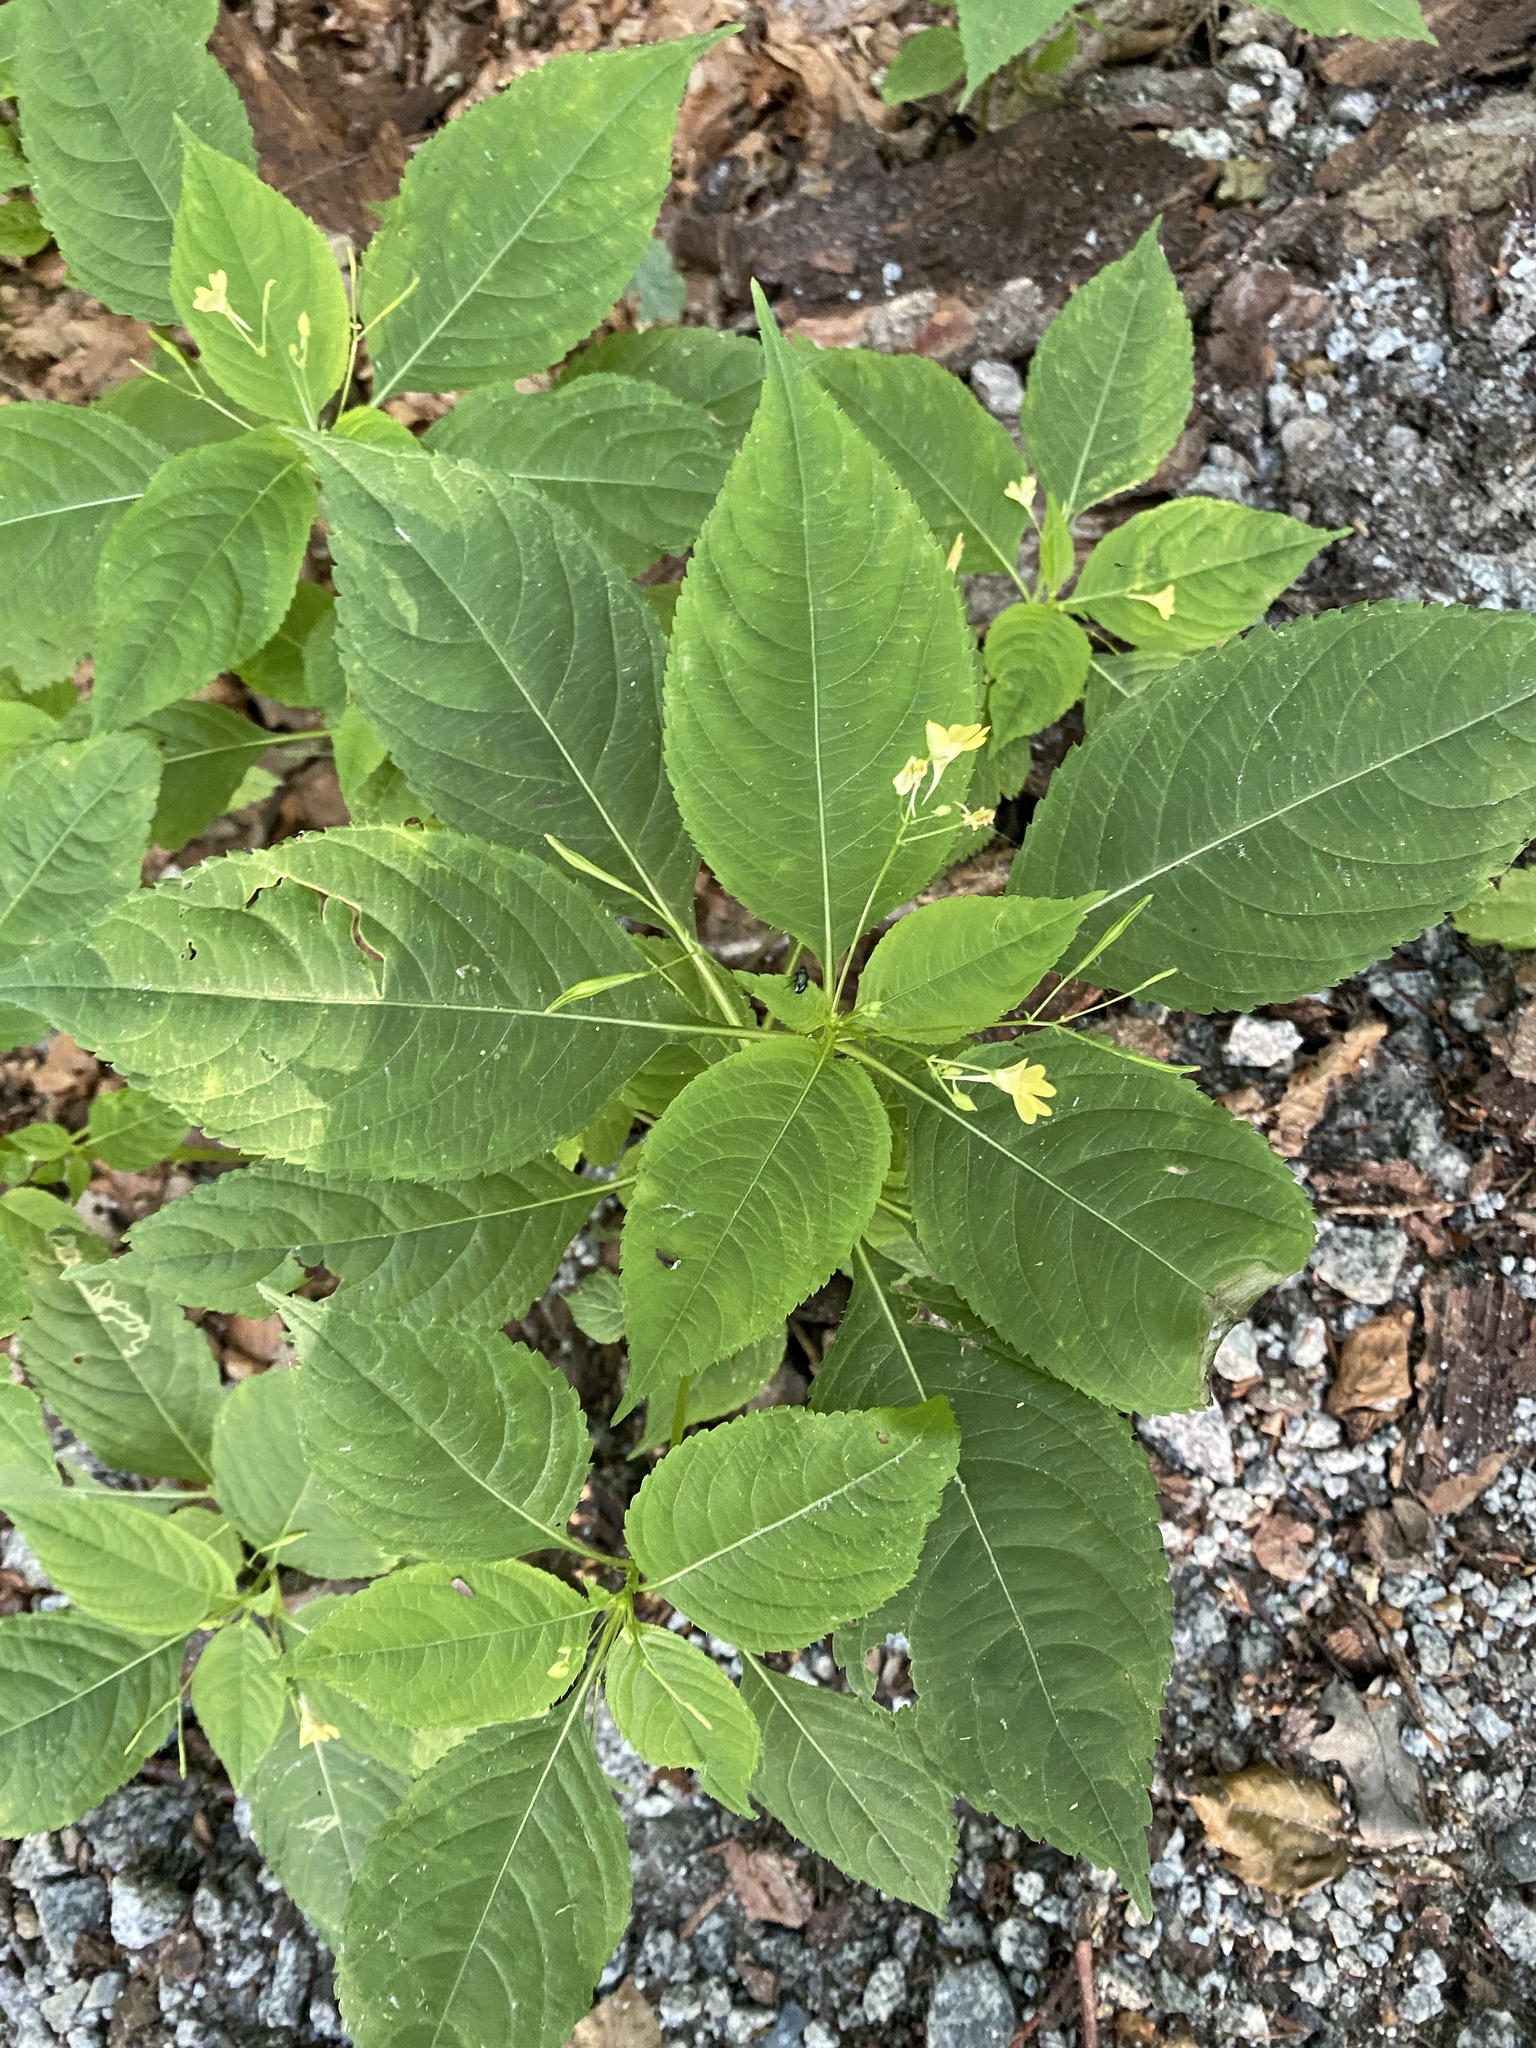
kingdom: Plantae
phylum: Tracheophyta
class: Magnoliopsida
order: Ericales
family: Balsaminaceae
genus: Impatiens
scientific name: Impatiens parviflora
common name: Small balsam
